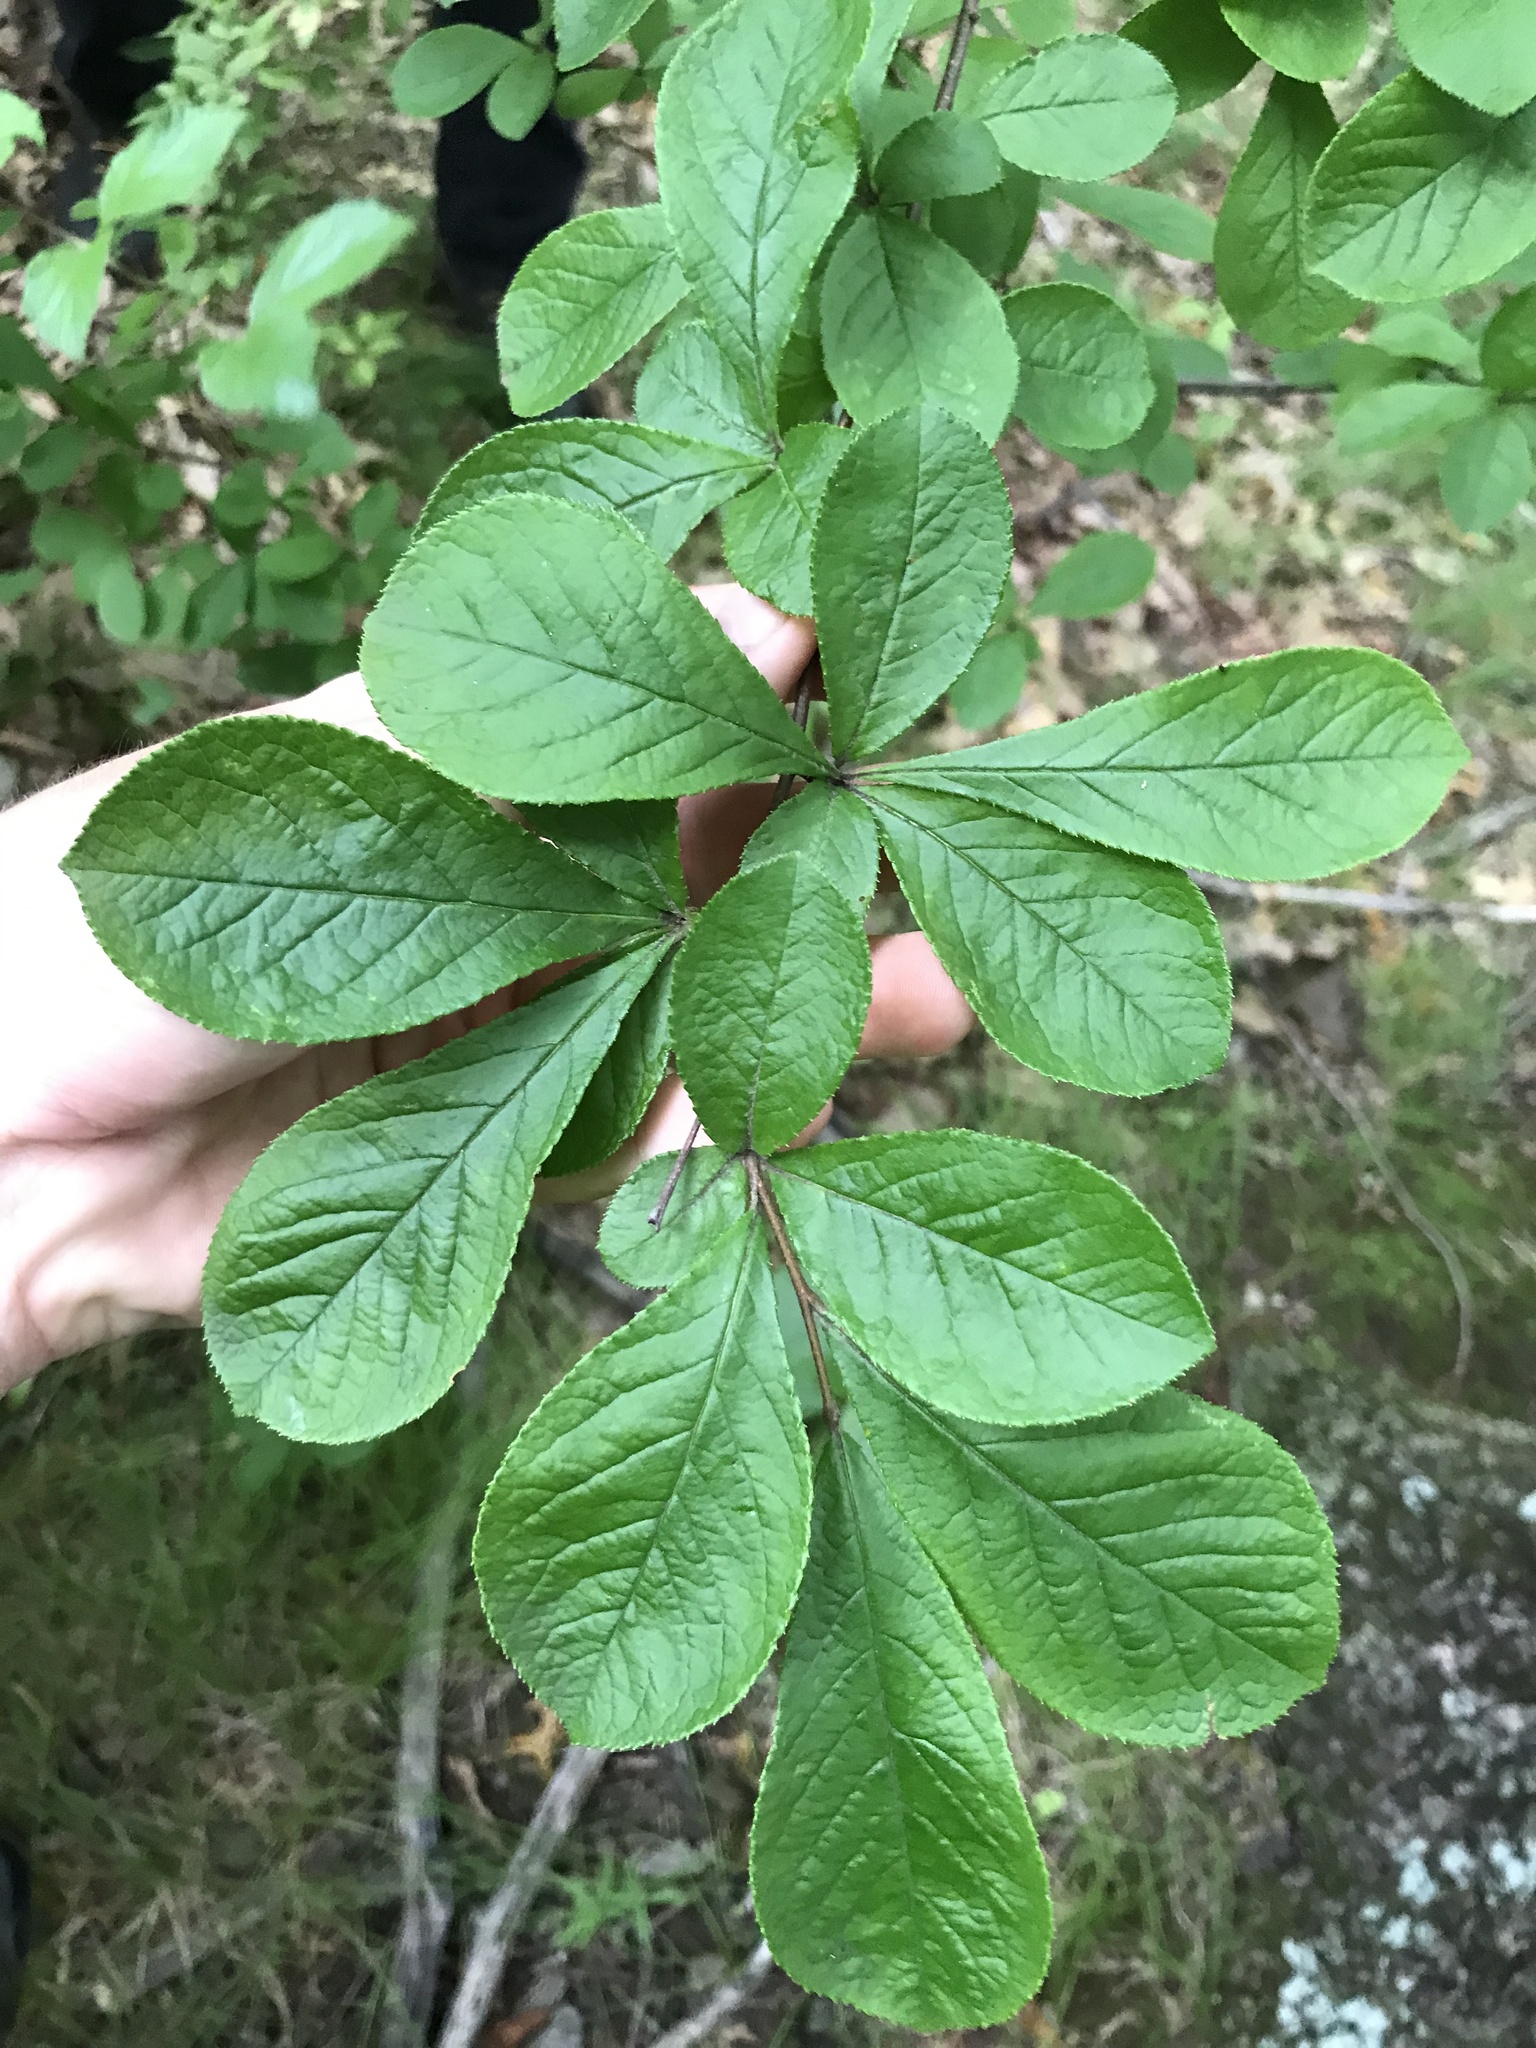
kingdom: Plantae
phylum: Tracheophyta
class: Magnoliopsida
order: Rosales
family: Rosaceae
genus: Pourthiaea
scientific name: Pourthiaea villosa
